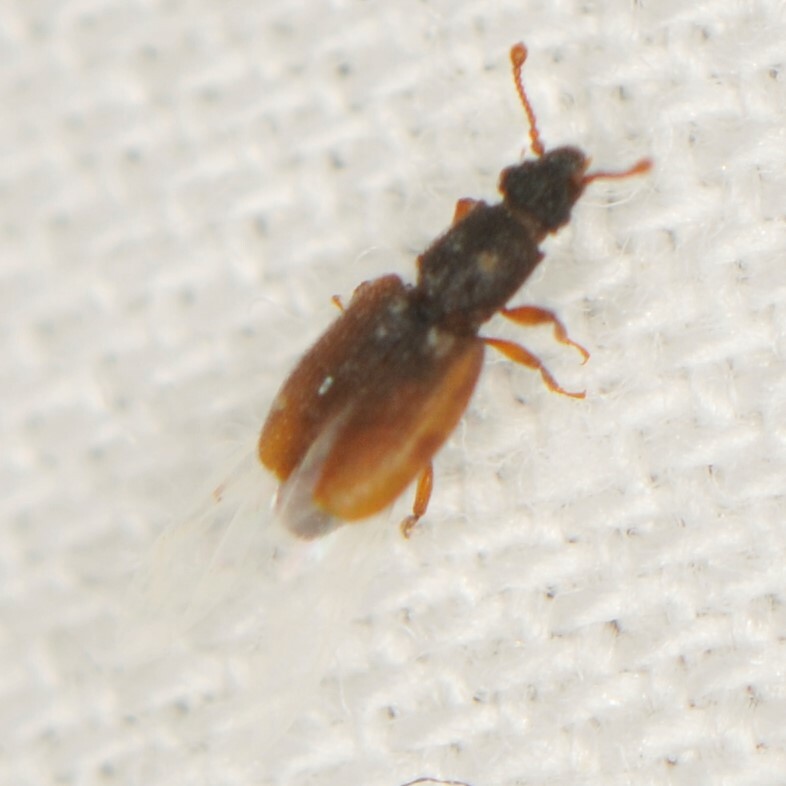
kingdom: Animalia
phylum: Arthropoda
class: Insecta
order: Coleoptera
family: Monotomidae
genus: Monotoma
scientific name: Monotoma
